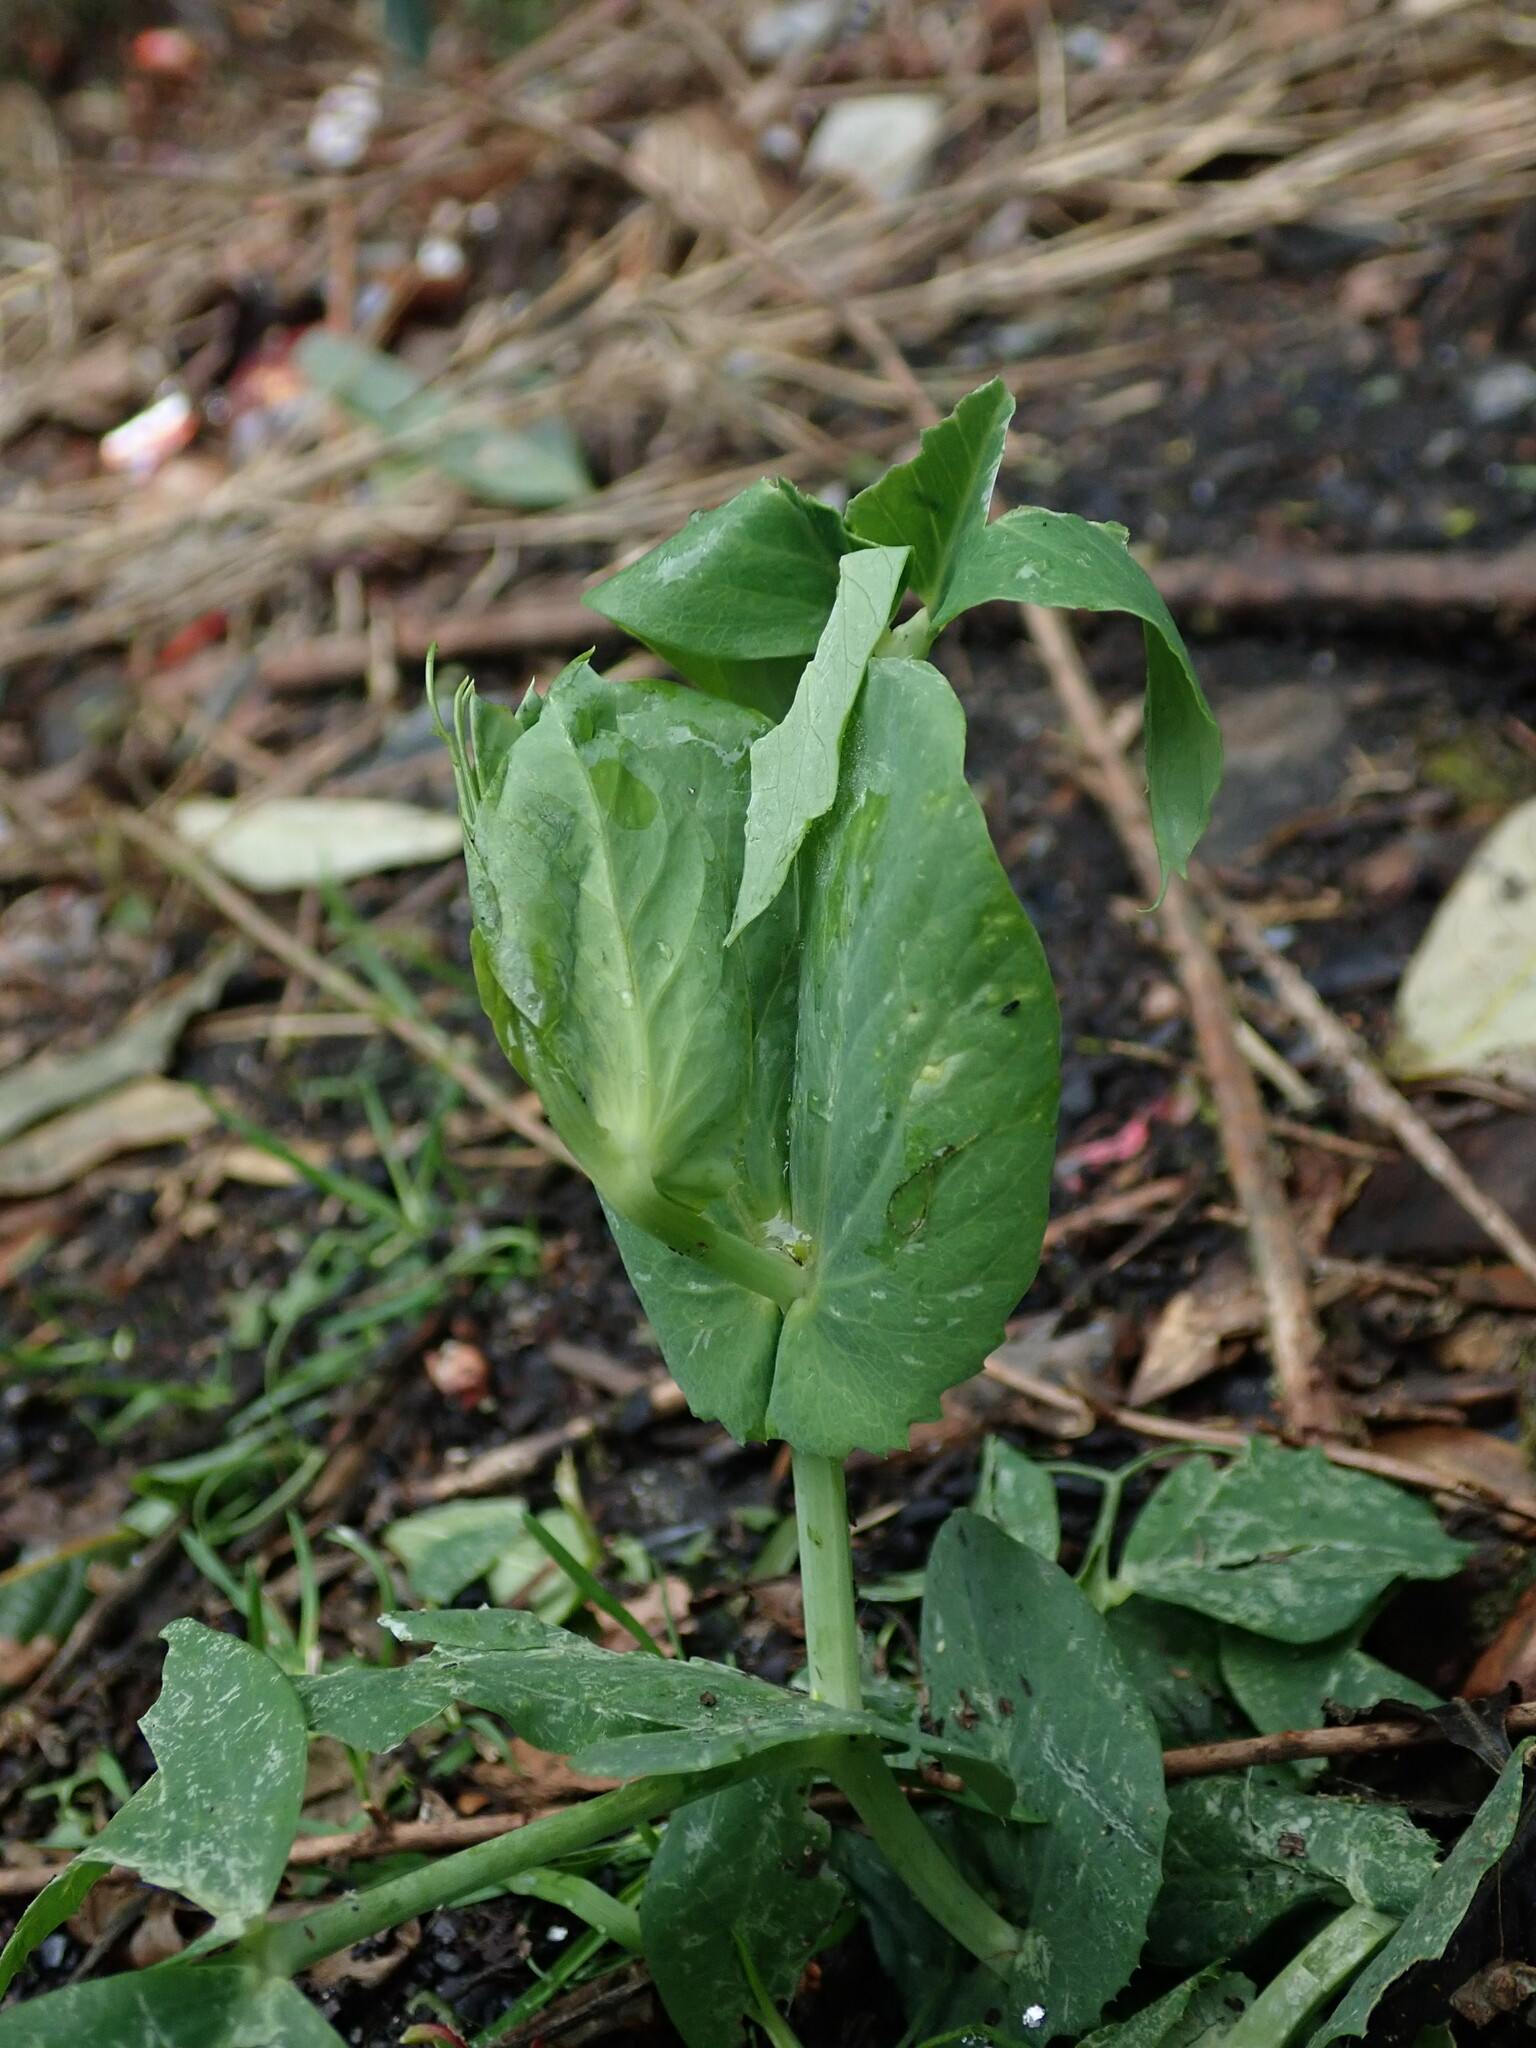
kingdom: Plantae
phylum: Tracheophyta
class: Magnoliopsida
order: Fabales
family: Fabaceae
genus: Lathyrus
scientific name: Lathyrus oleraceus
